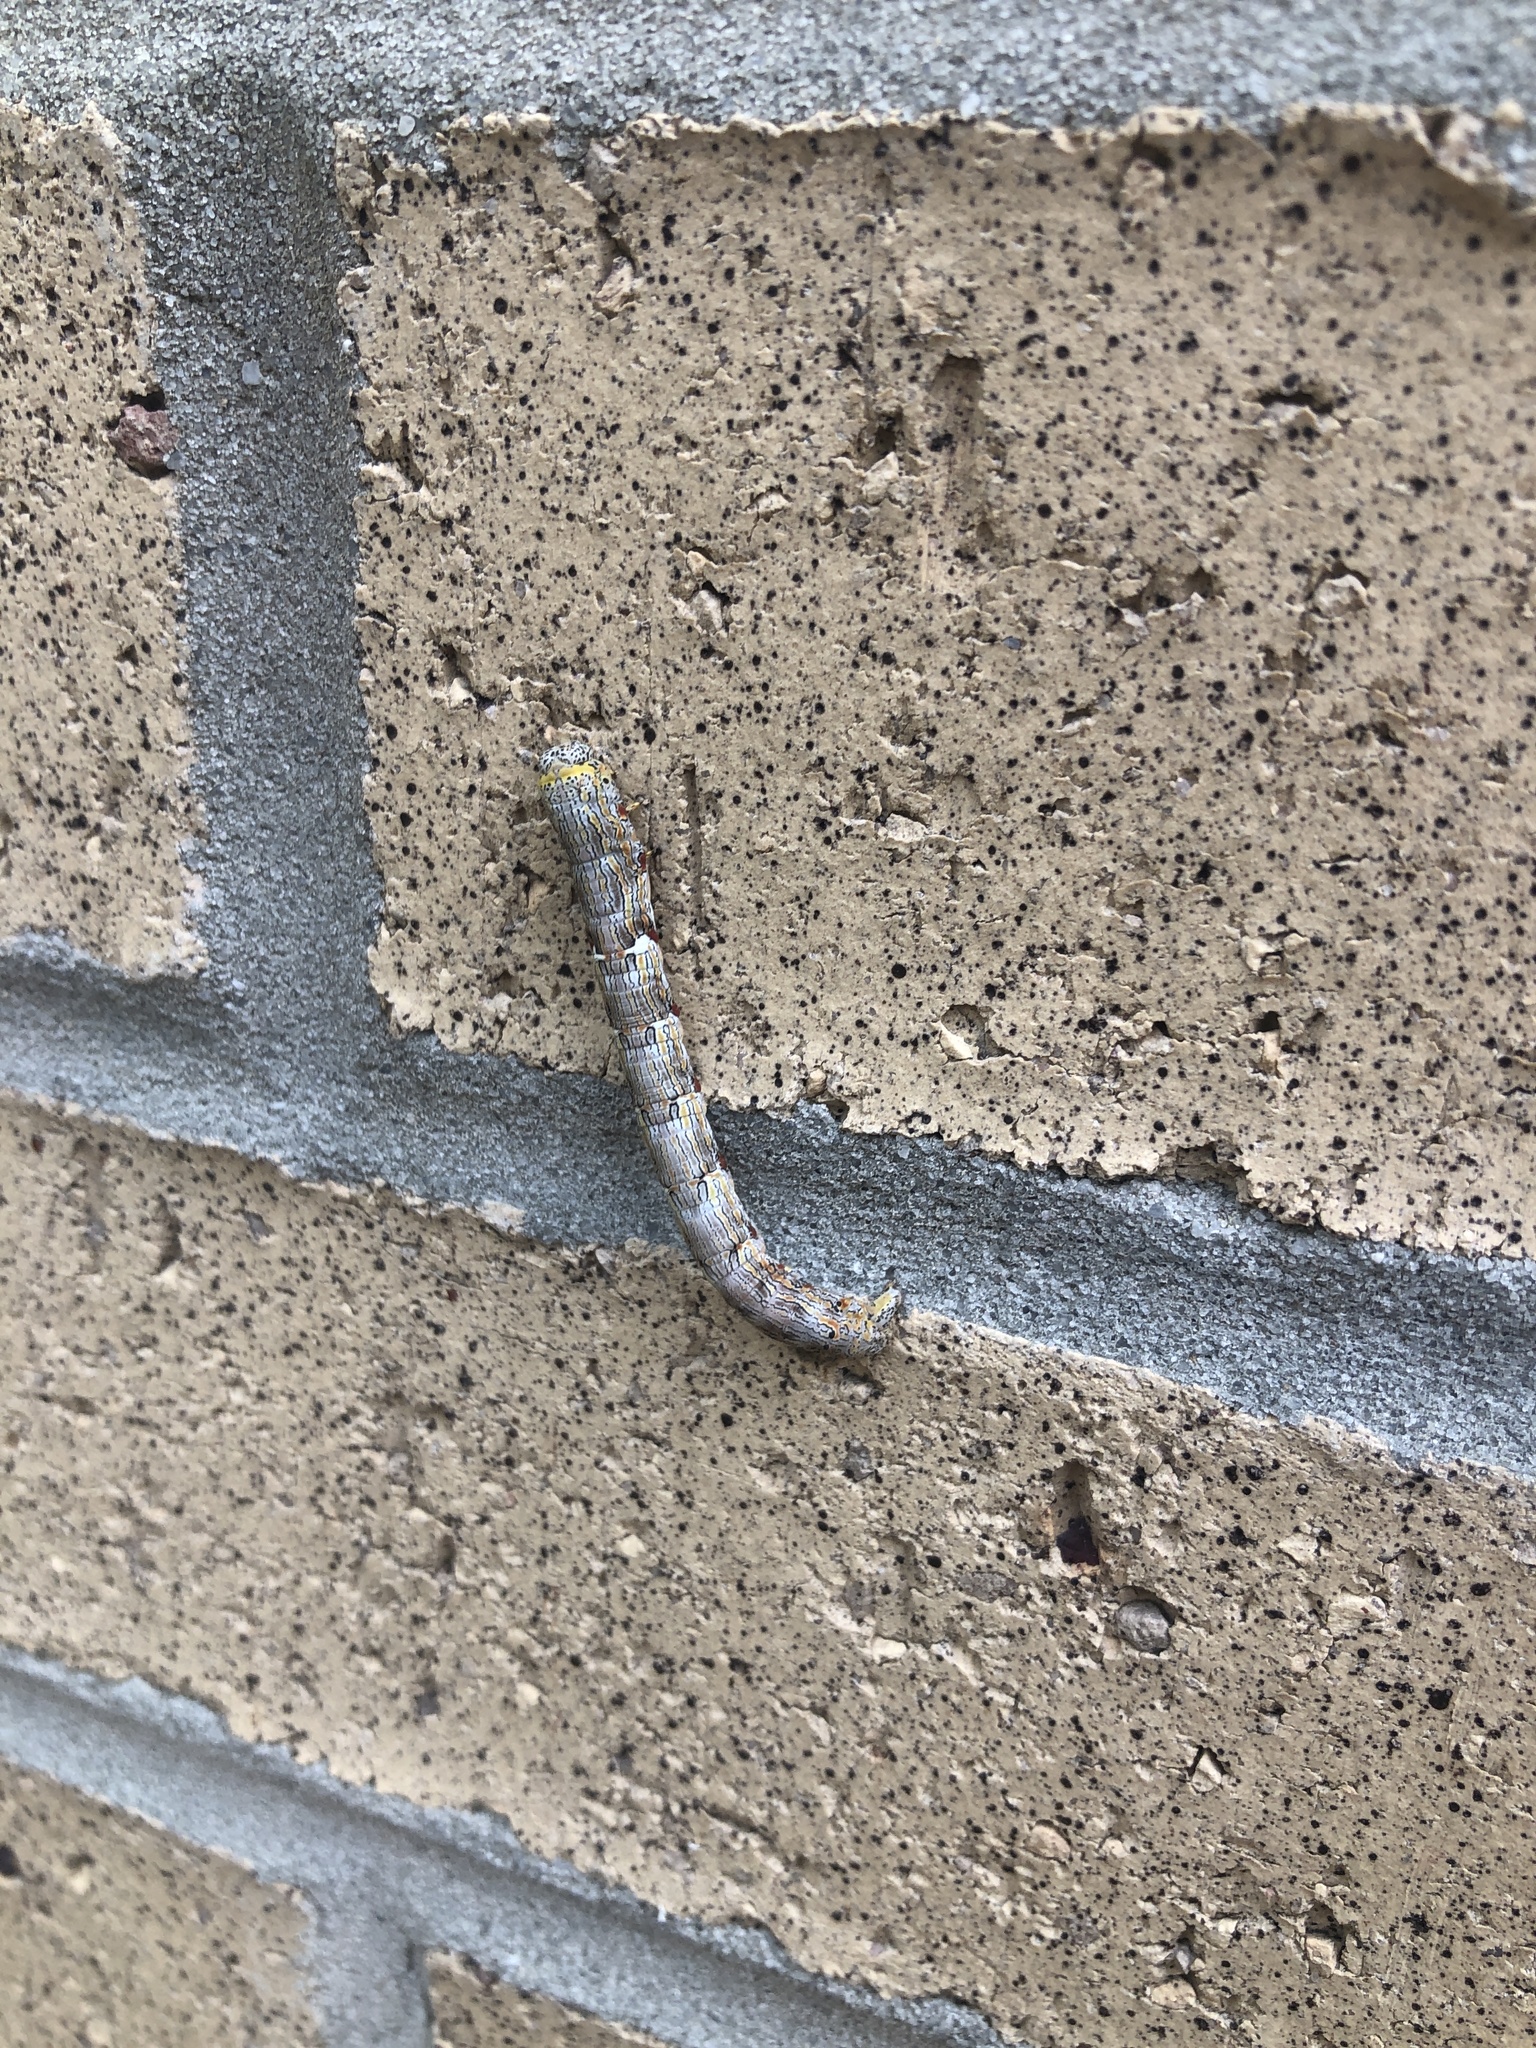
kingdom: Animalia
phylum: Arthropoda
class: Insecta
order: Lepidoptera
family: Geometridae
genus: Lycia
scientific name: Lycia ypsilon
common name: Wooly gray
